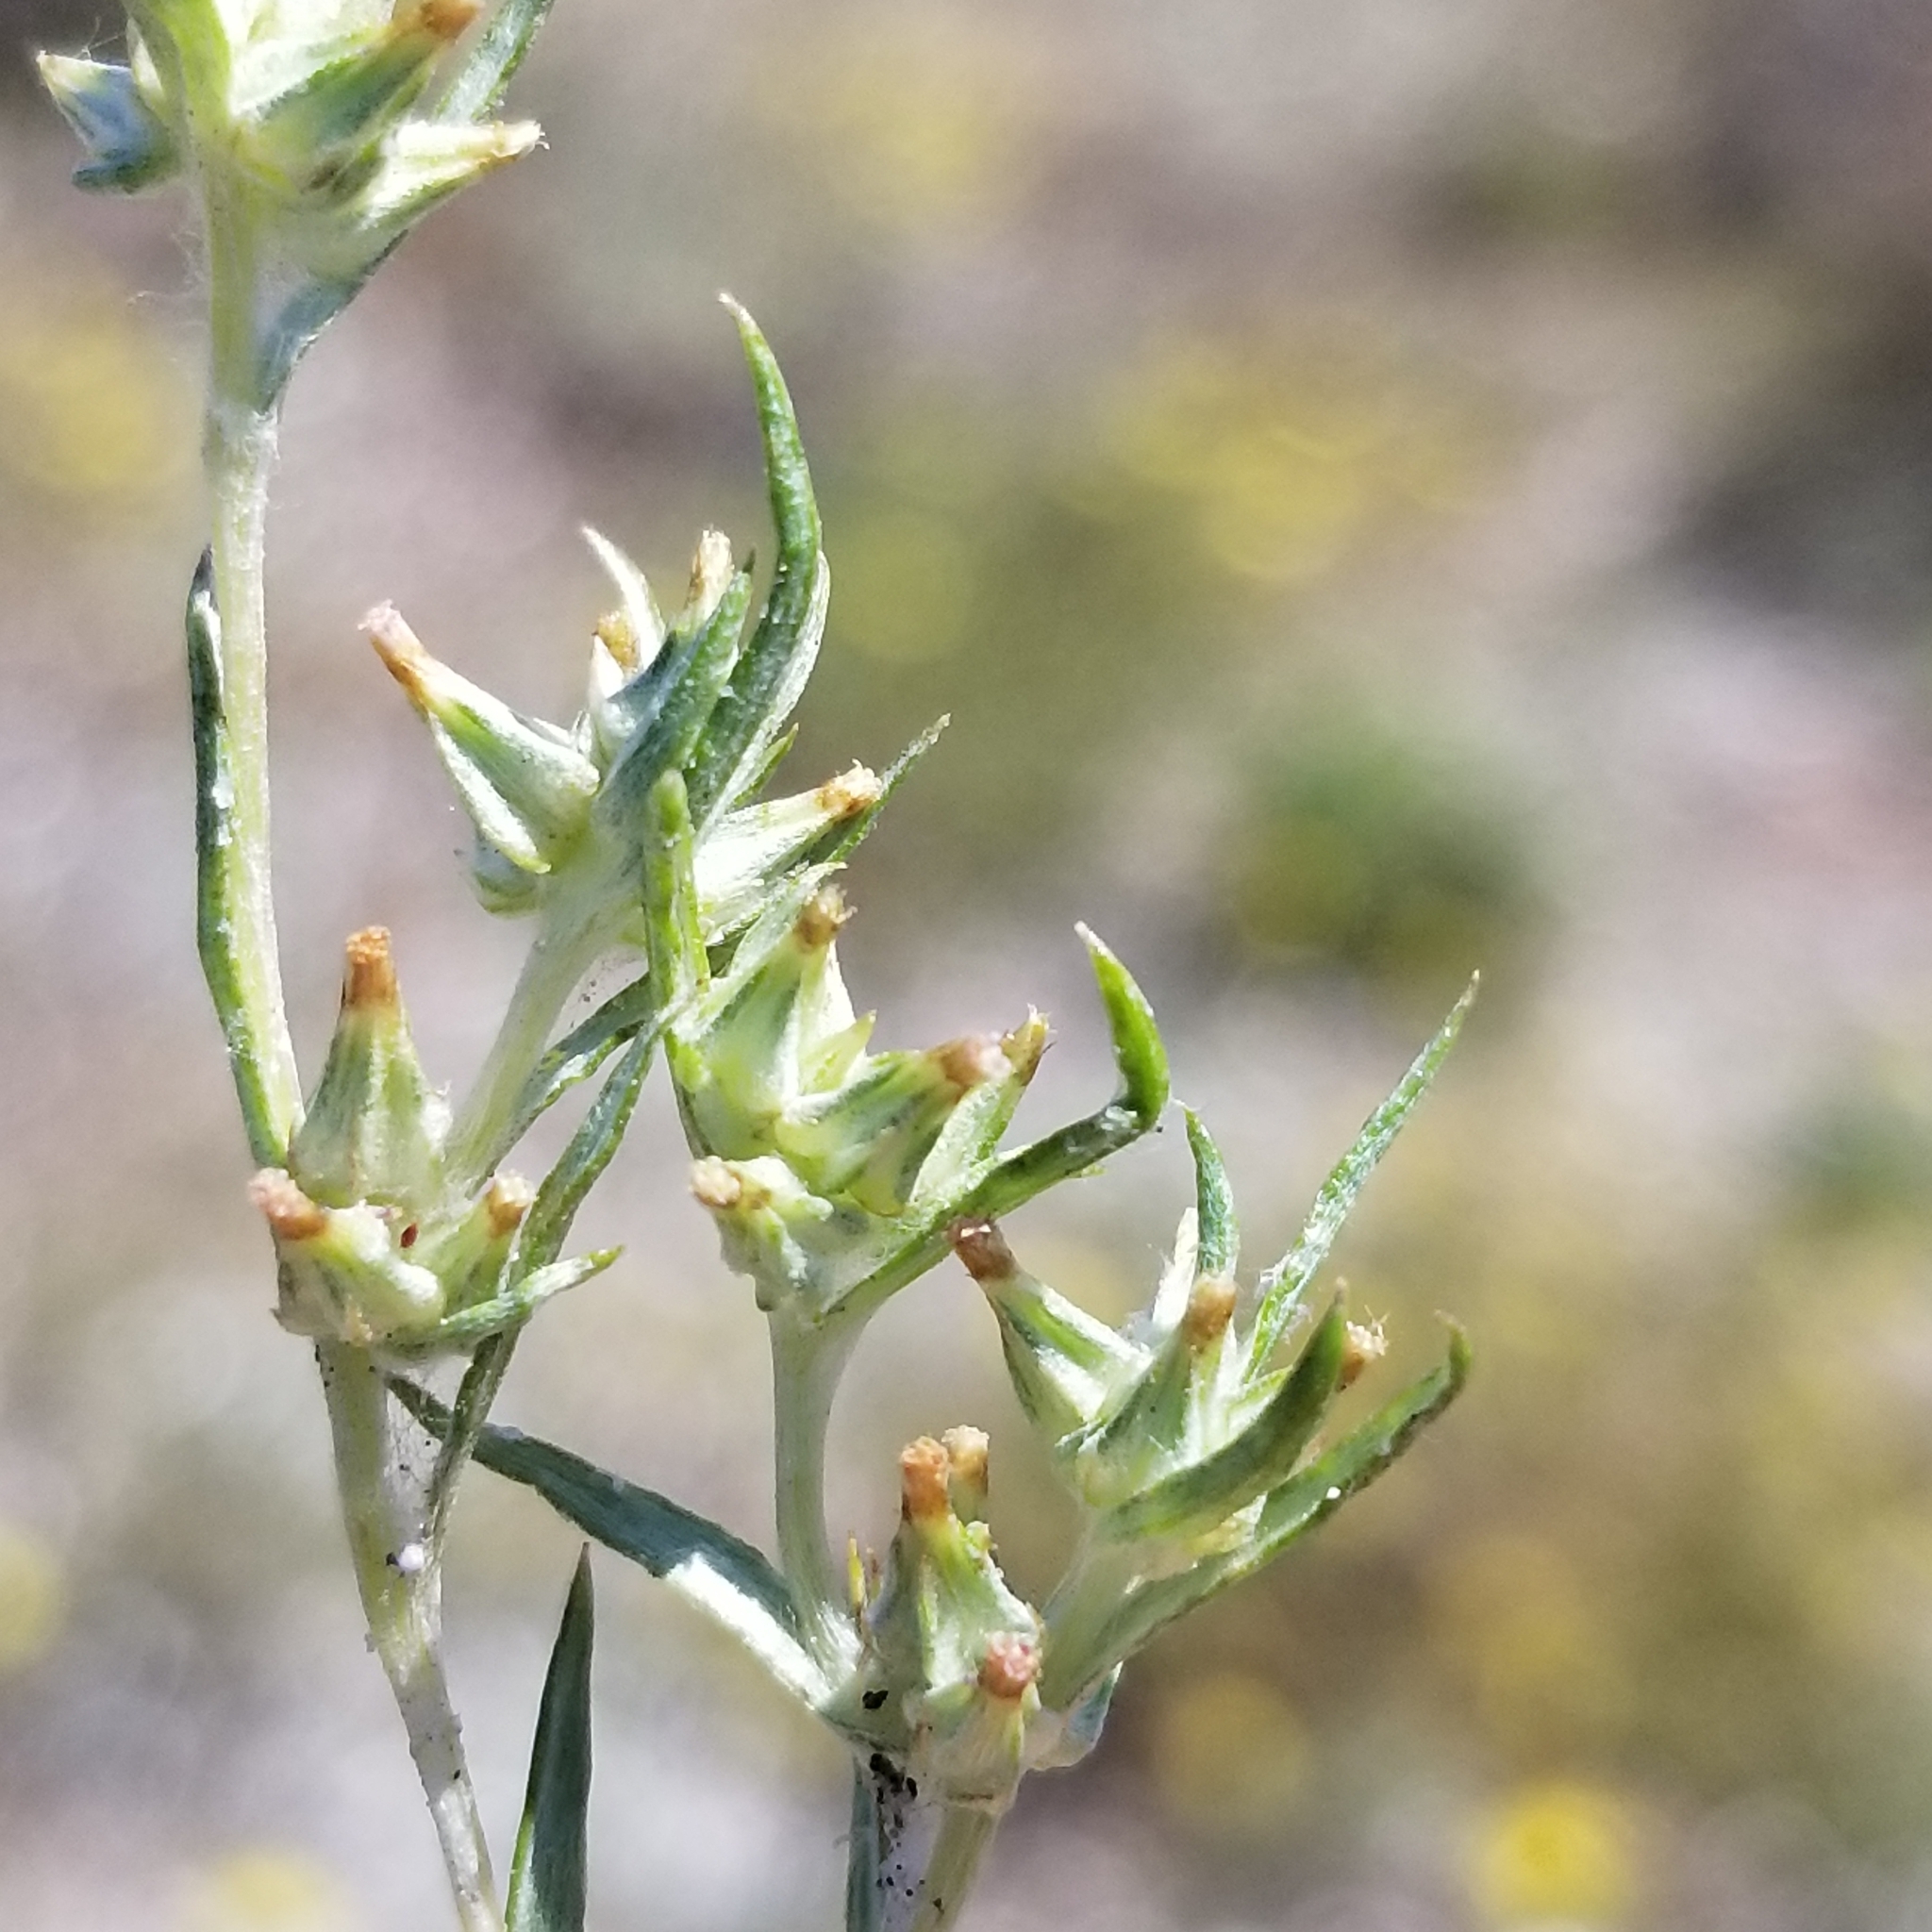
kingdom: Plantae
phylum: Tracheophyta
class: Magnoliopsida
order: Asterales
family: Asteraceae
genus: Logfia
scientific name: Logfia gallica
